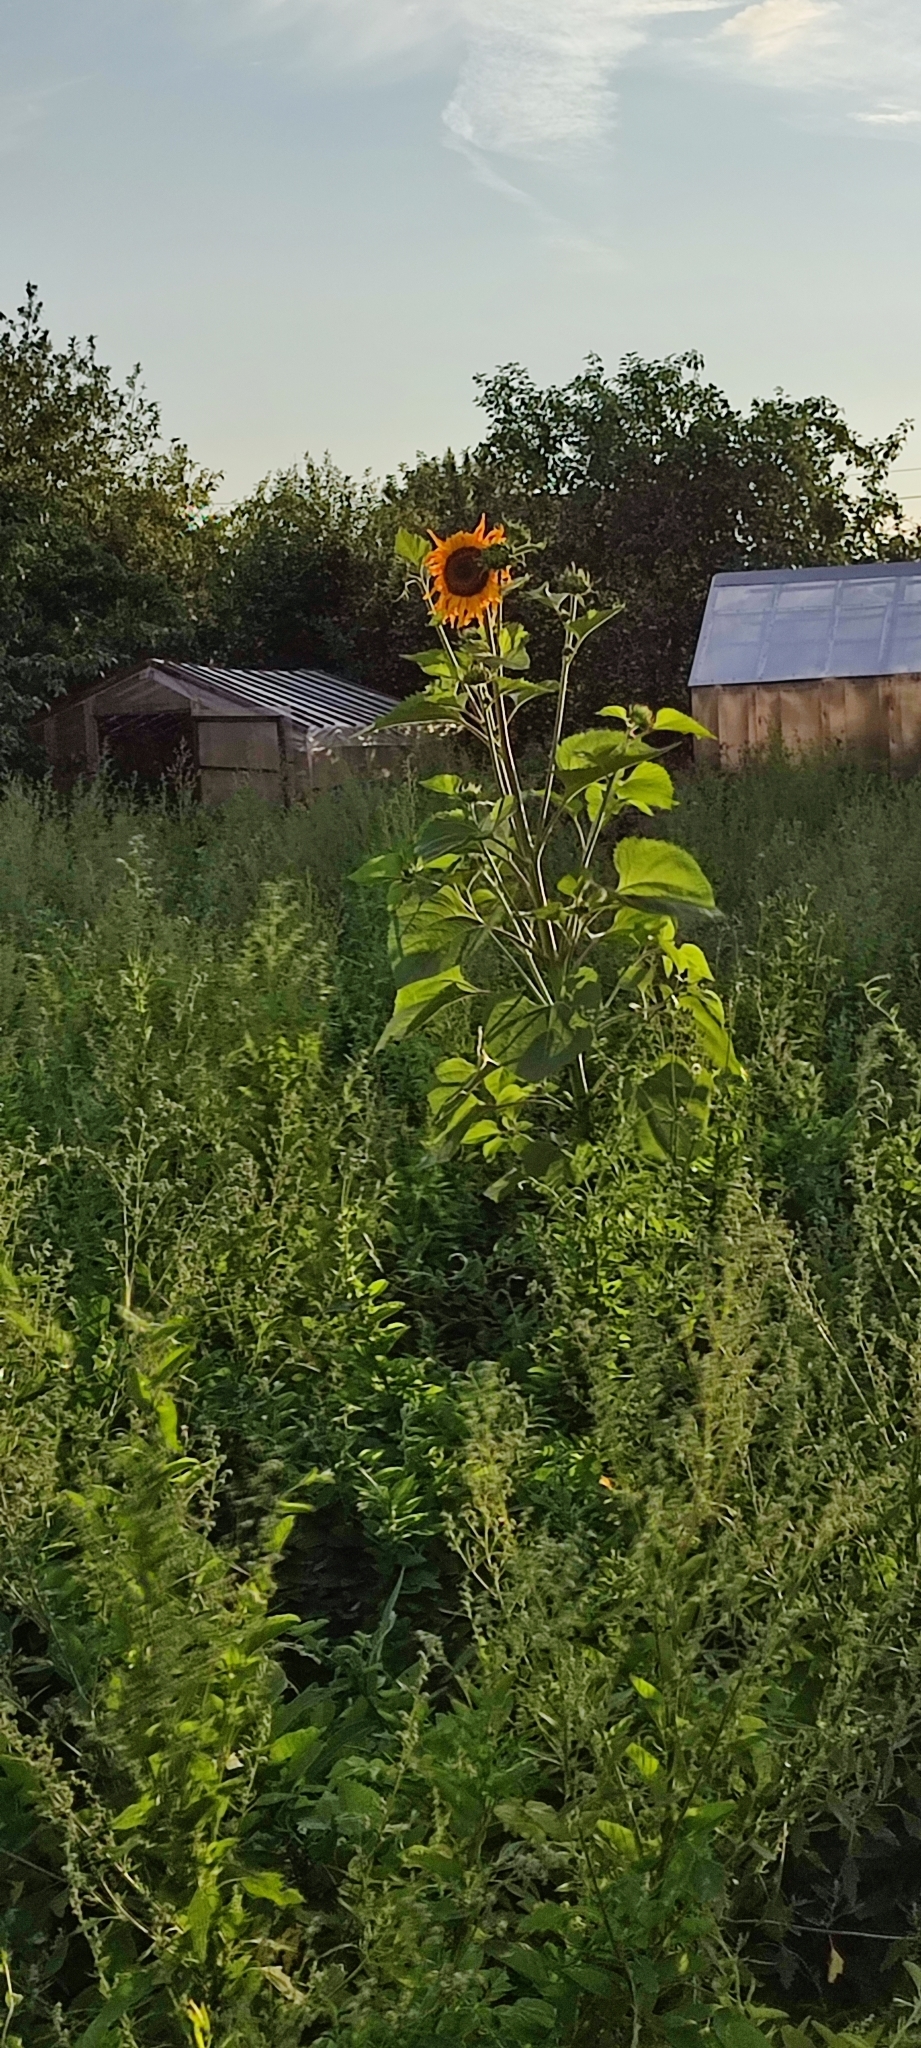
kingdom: Plantae
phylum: Tracheophyta
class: Magnoliopsida
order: Asterales
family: Asteraceae
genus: Helianthus
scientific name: Helianthus annuus
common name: Sunflower
